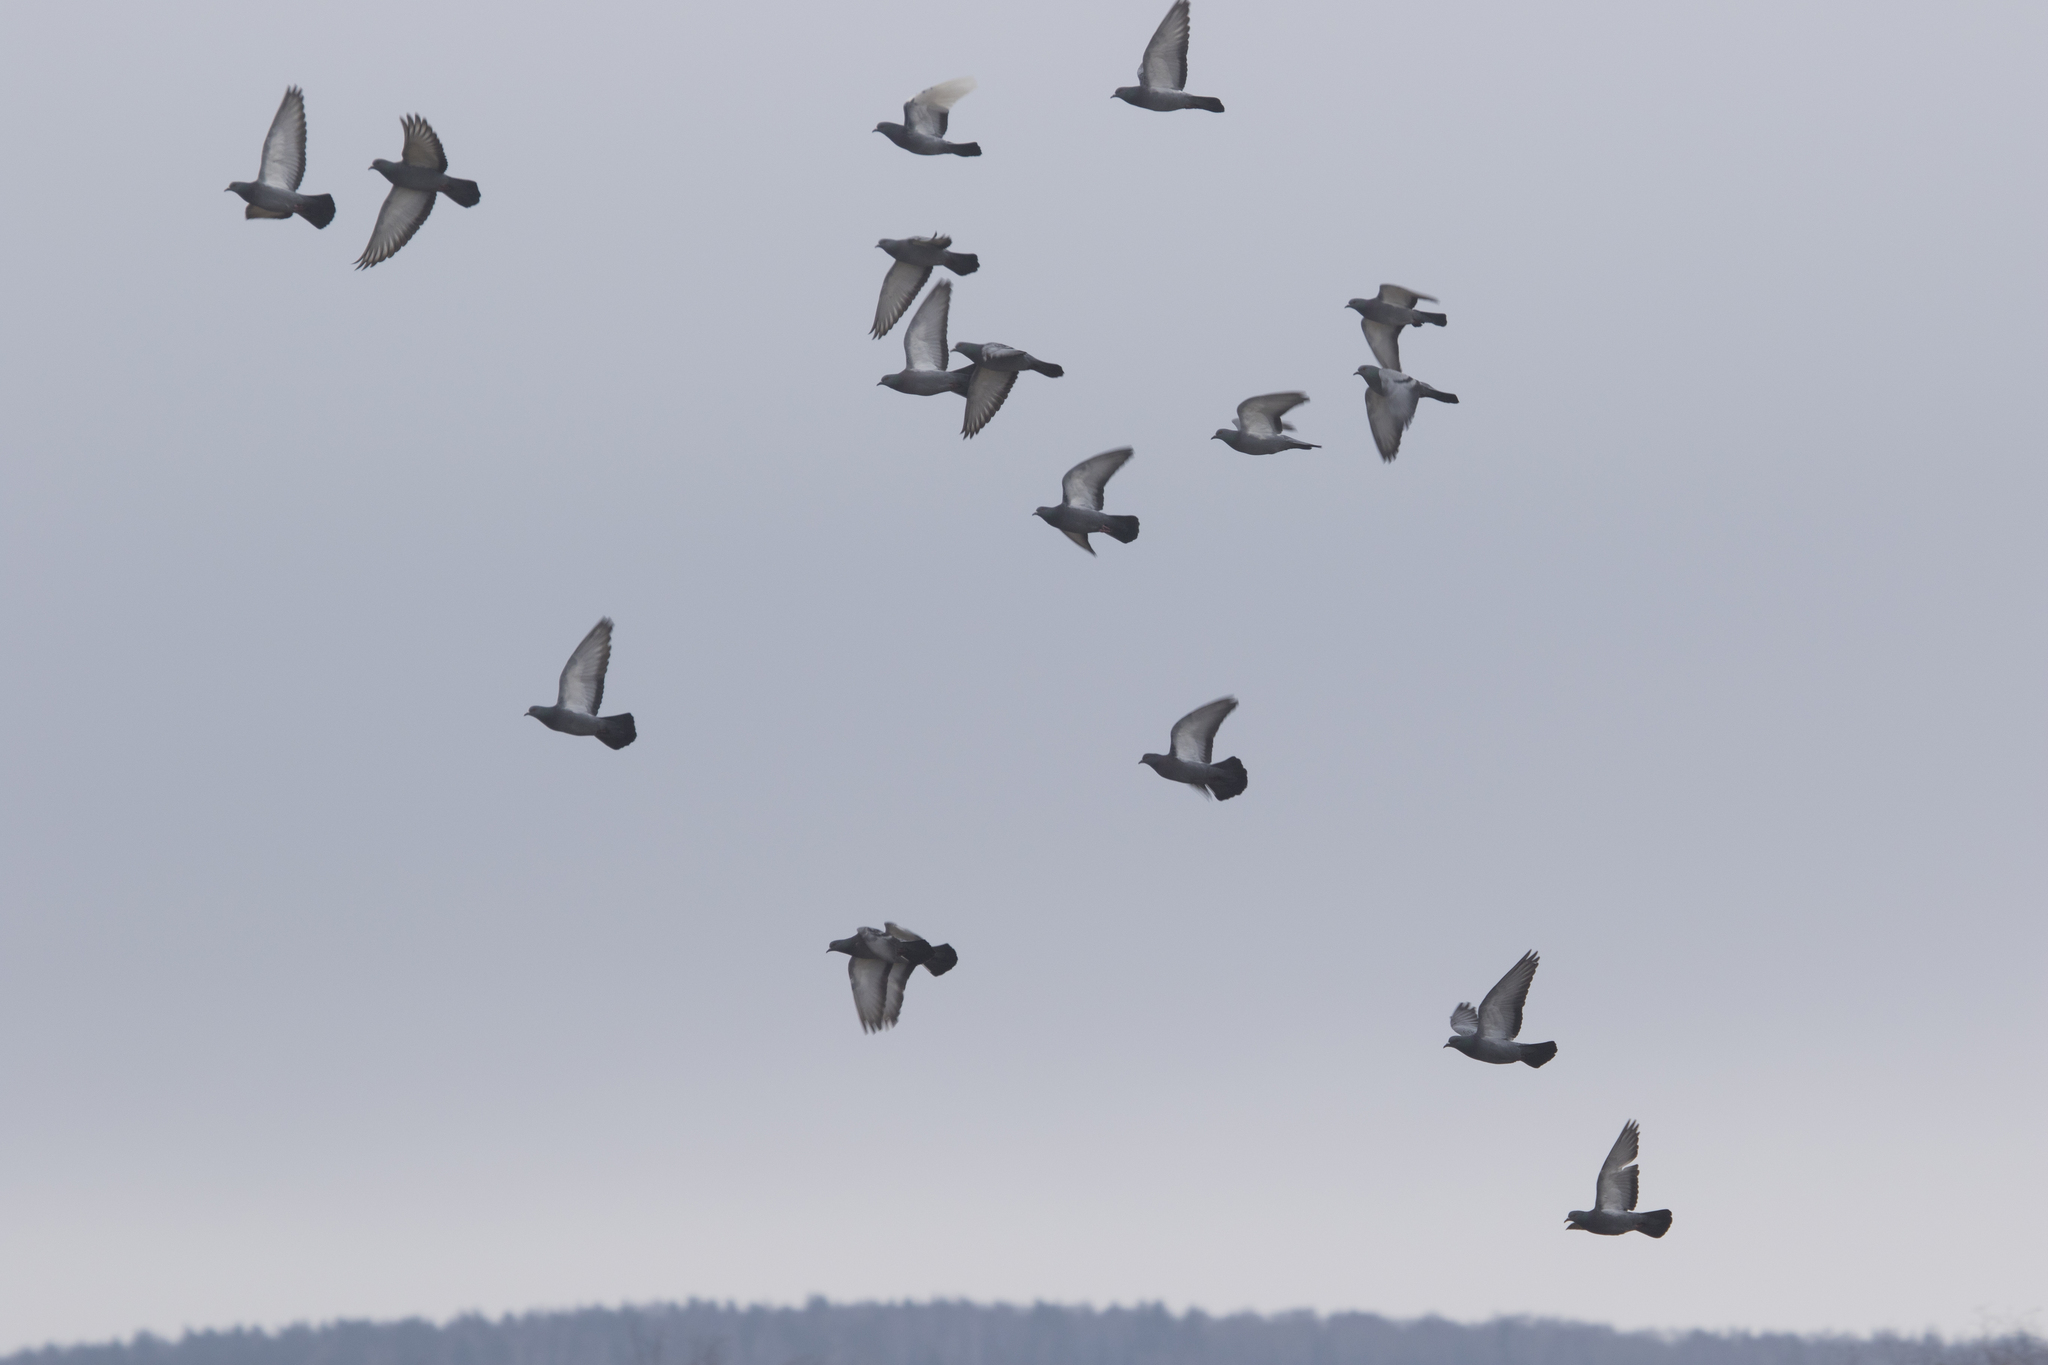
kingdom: Animalia
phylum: Chordata
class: Aves
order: Columbiformes
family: Columbidae
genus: Columba
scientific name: Columba livia
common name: Rock pigeon
